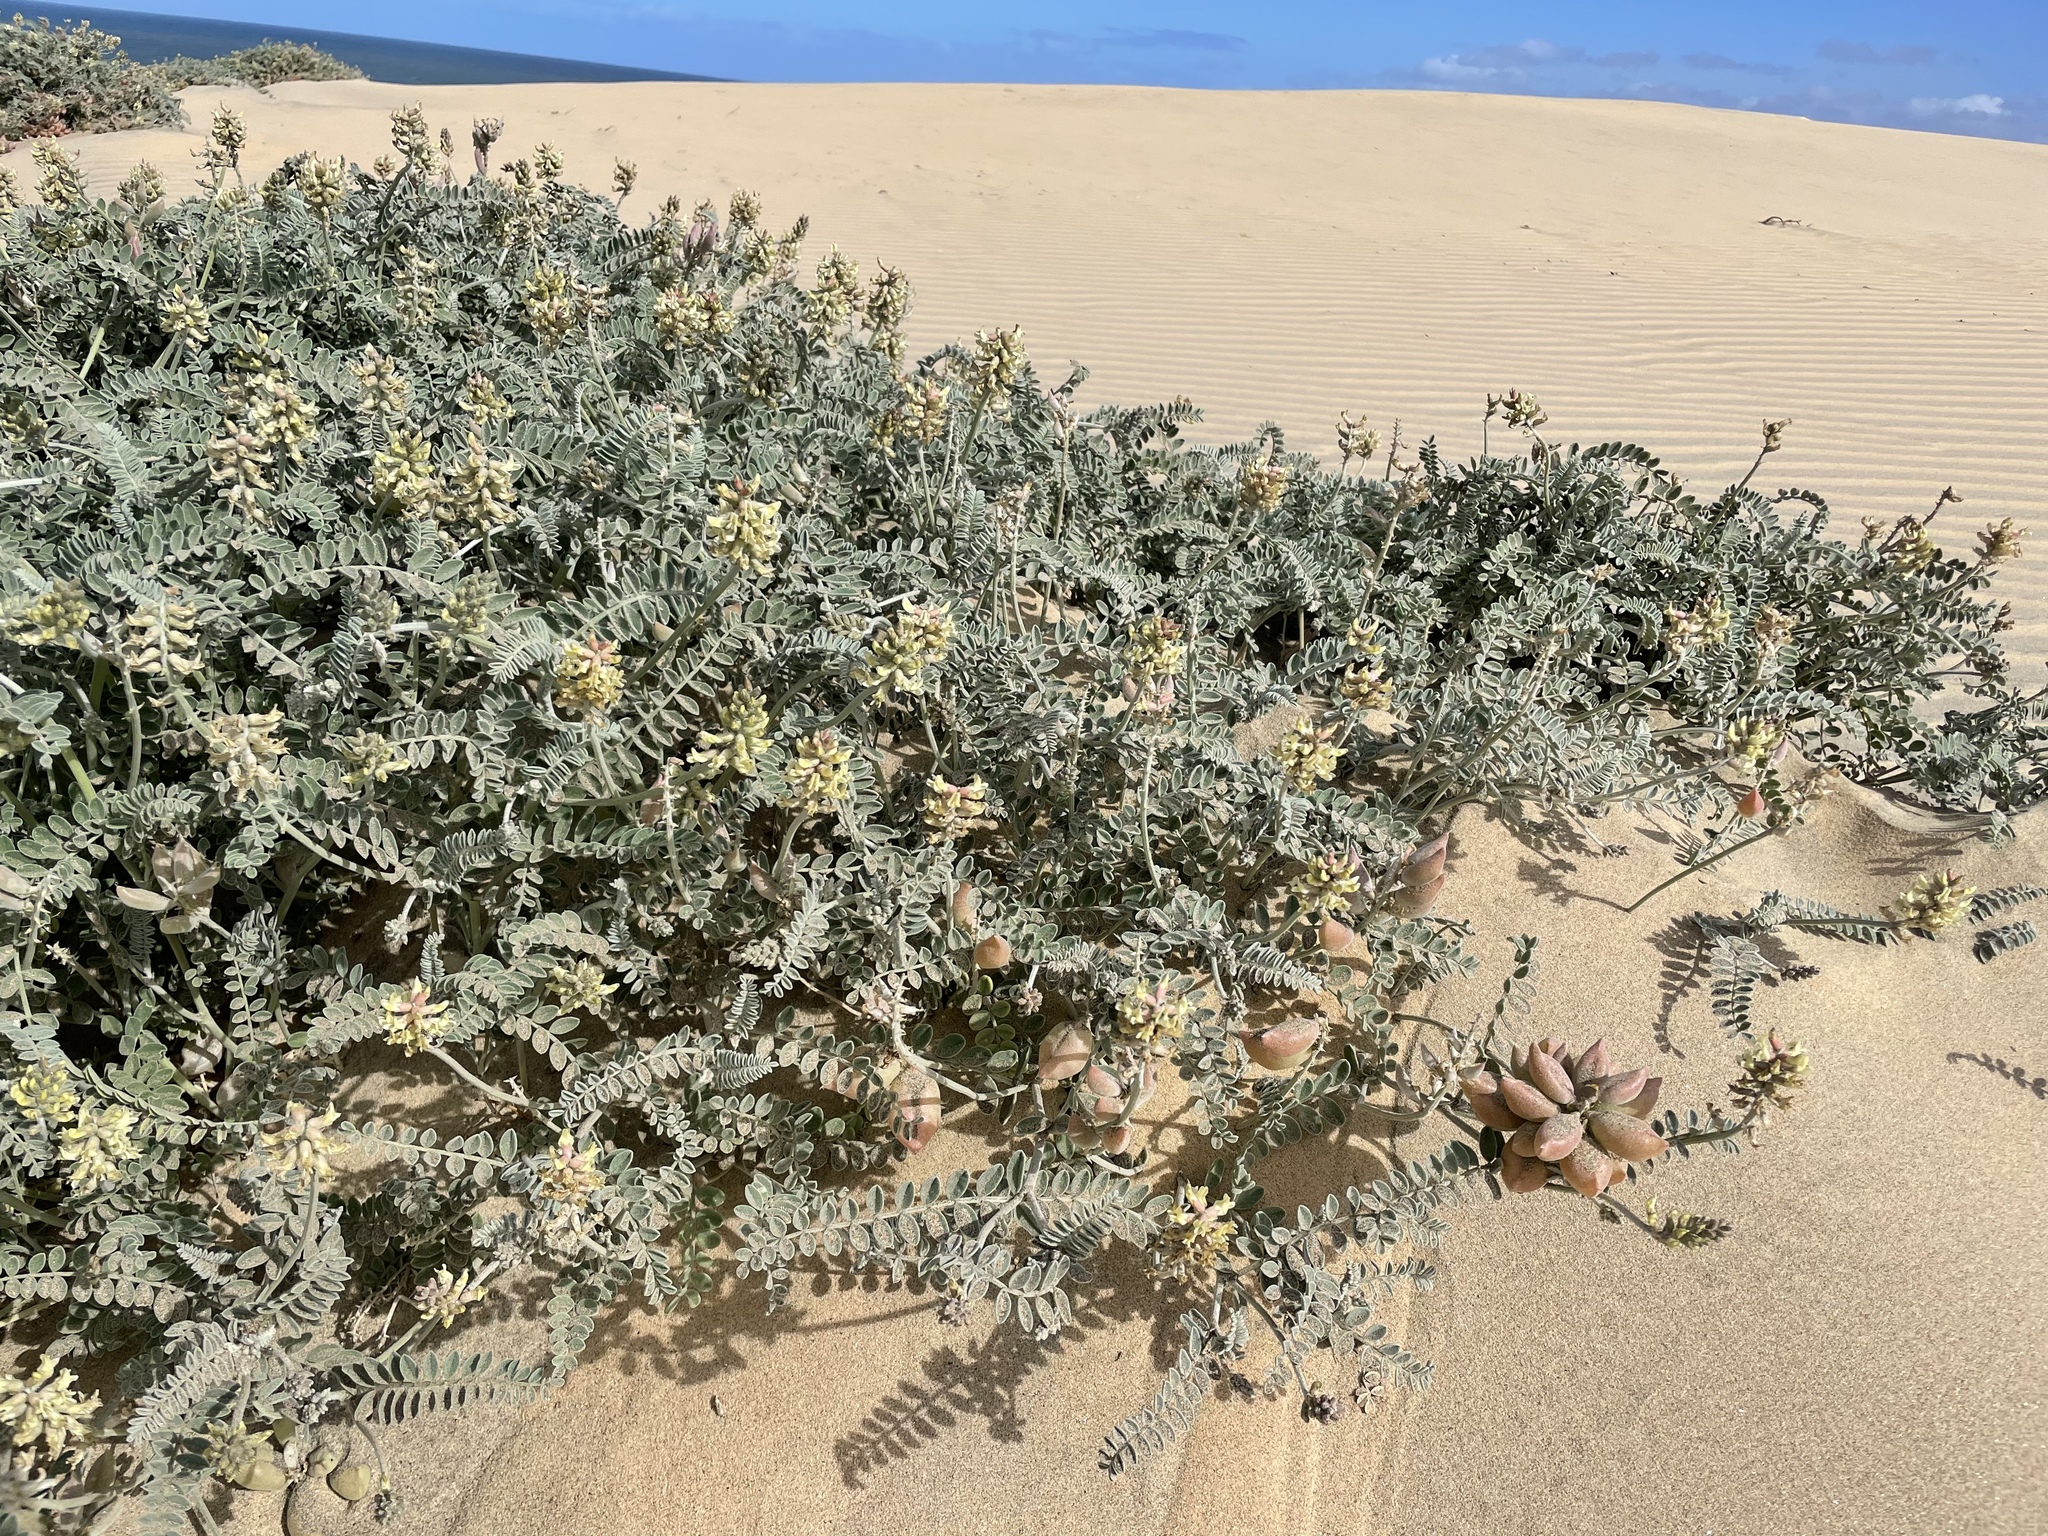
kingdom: Plantae
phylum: Tracheophyta
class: Magnoliopsida
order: Fabales
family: Fabaceae
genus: Astragalus
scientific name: Astragalus anemophilus
